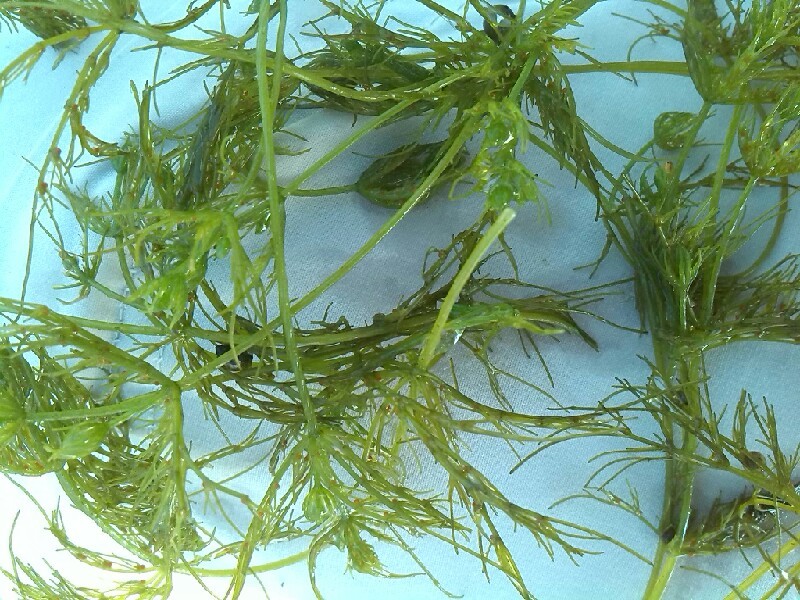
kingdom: Plantae
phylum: Charophyta
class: Charophyceae
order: Charales
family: Characeae
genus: Chara
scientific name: Chara vulgaris
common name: Common stonewort
